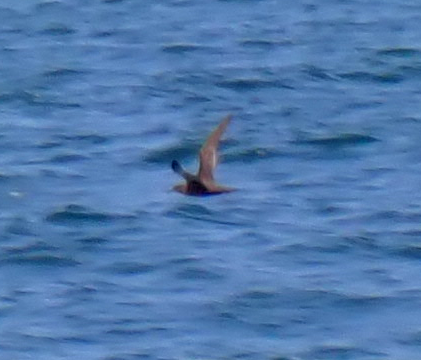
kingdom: Animalia
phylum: Chordata
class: Aves
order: Procellariiformes
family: Procellariidae
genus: Puffinus
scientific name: Puffinus griseus
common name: Sooty shearwater
